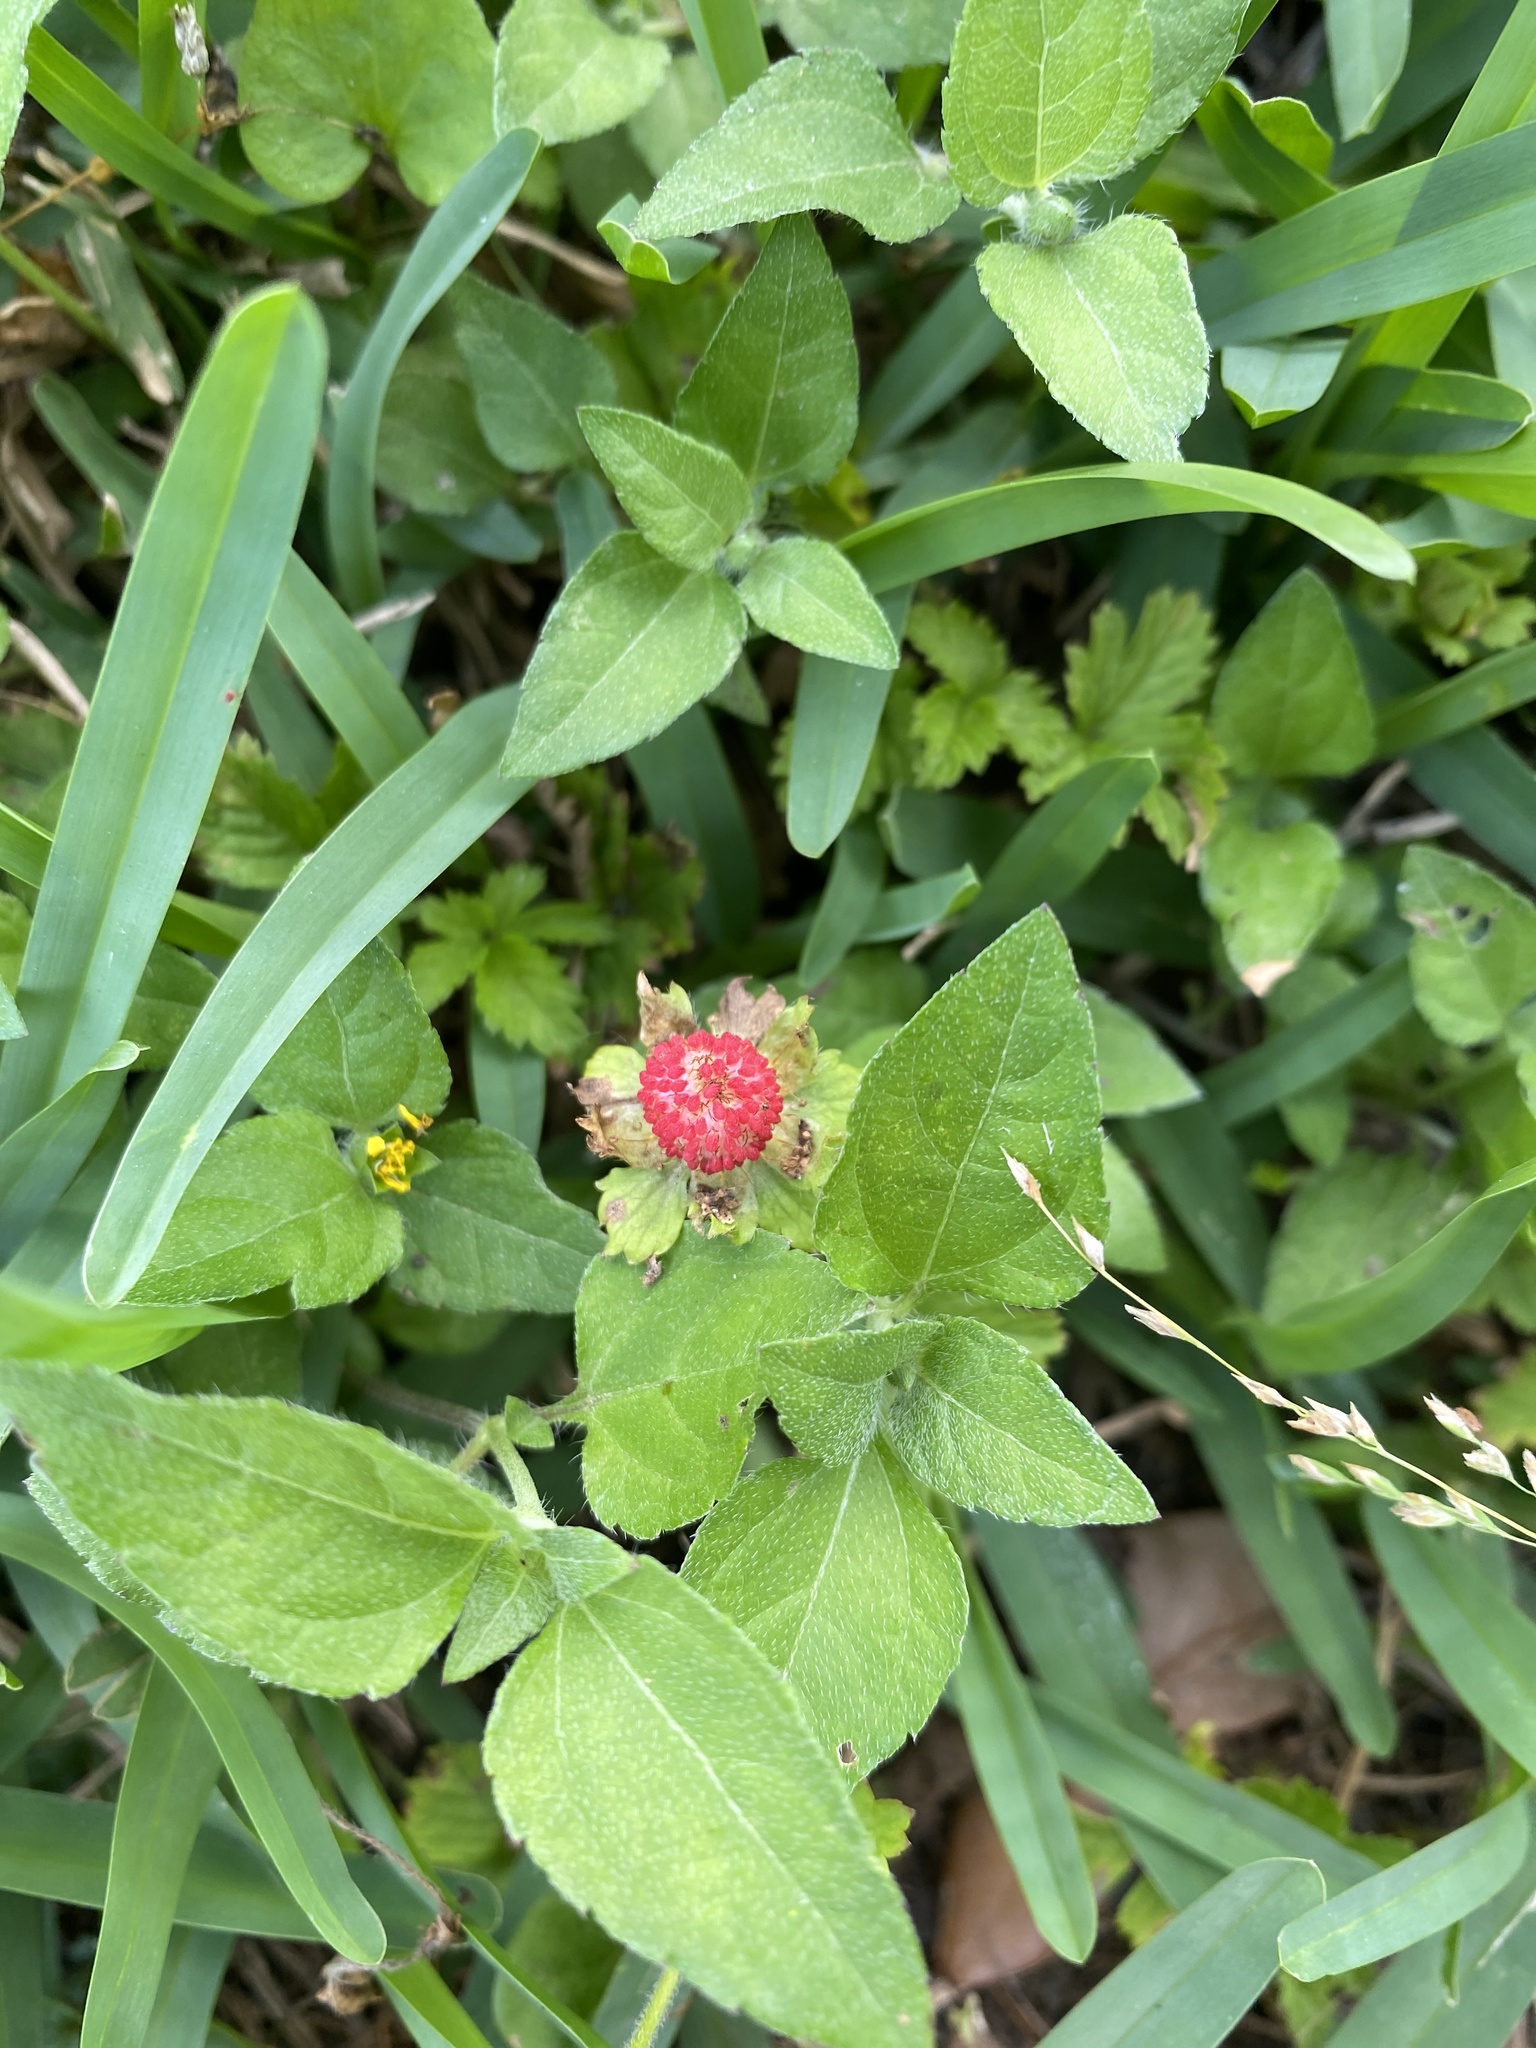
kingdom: Plantae
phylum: Tracheophyta
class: Magnoliopsida
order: Rosales
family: Rosaceae
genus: Potentilla
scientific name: Potentilla indica
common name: Yellow-flowered strawberry
